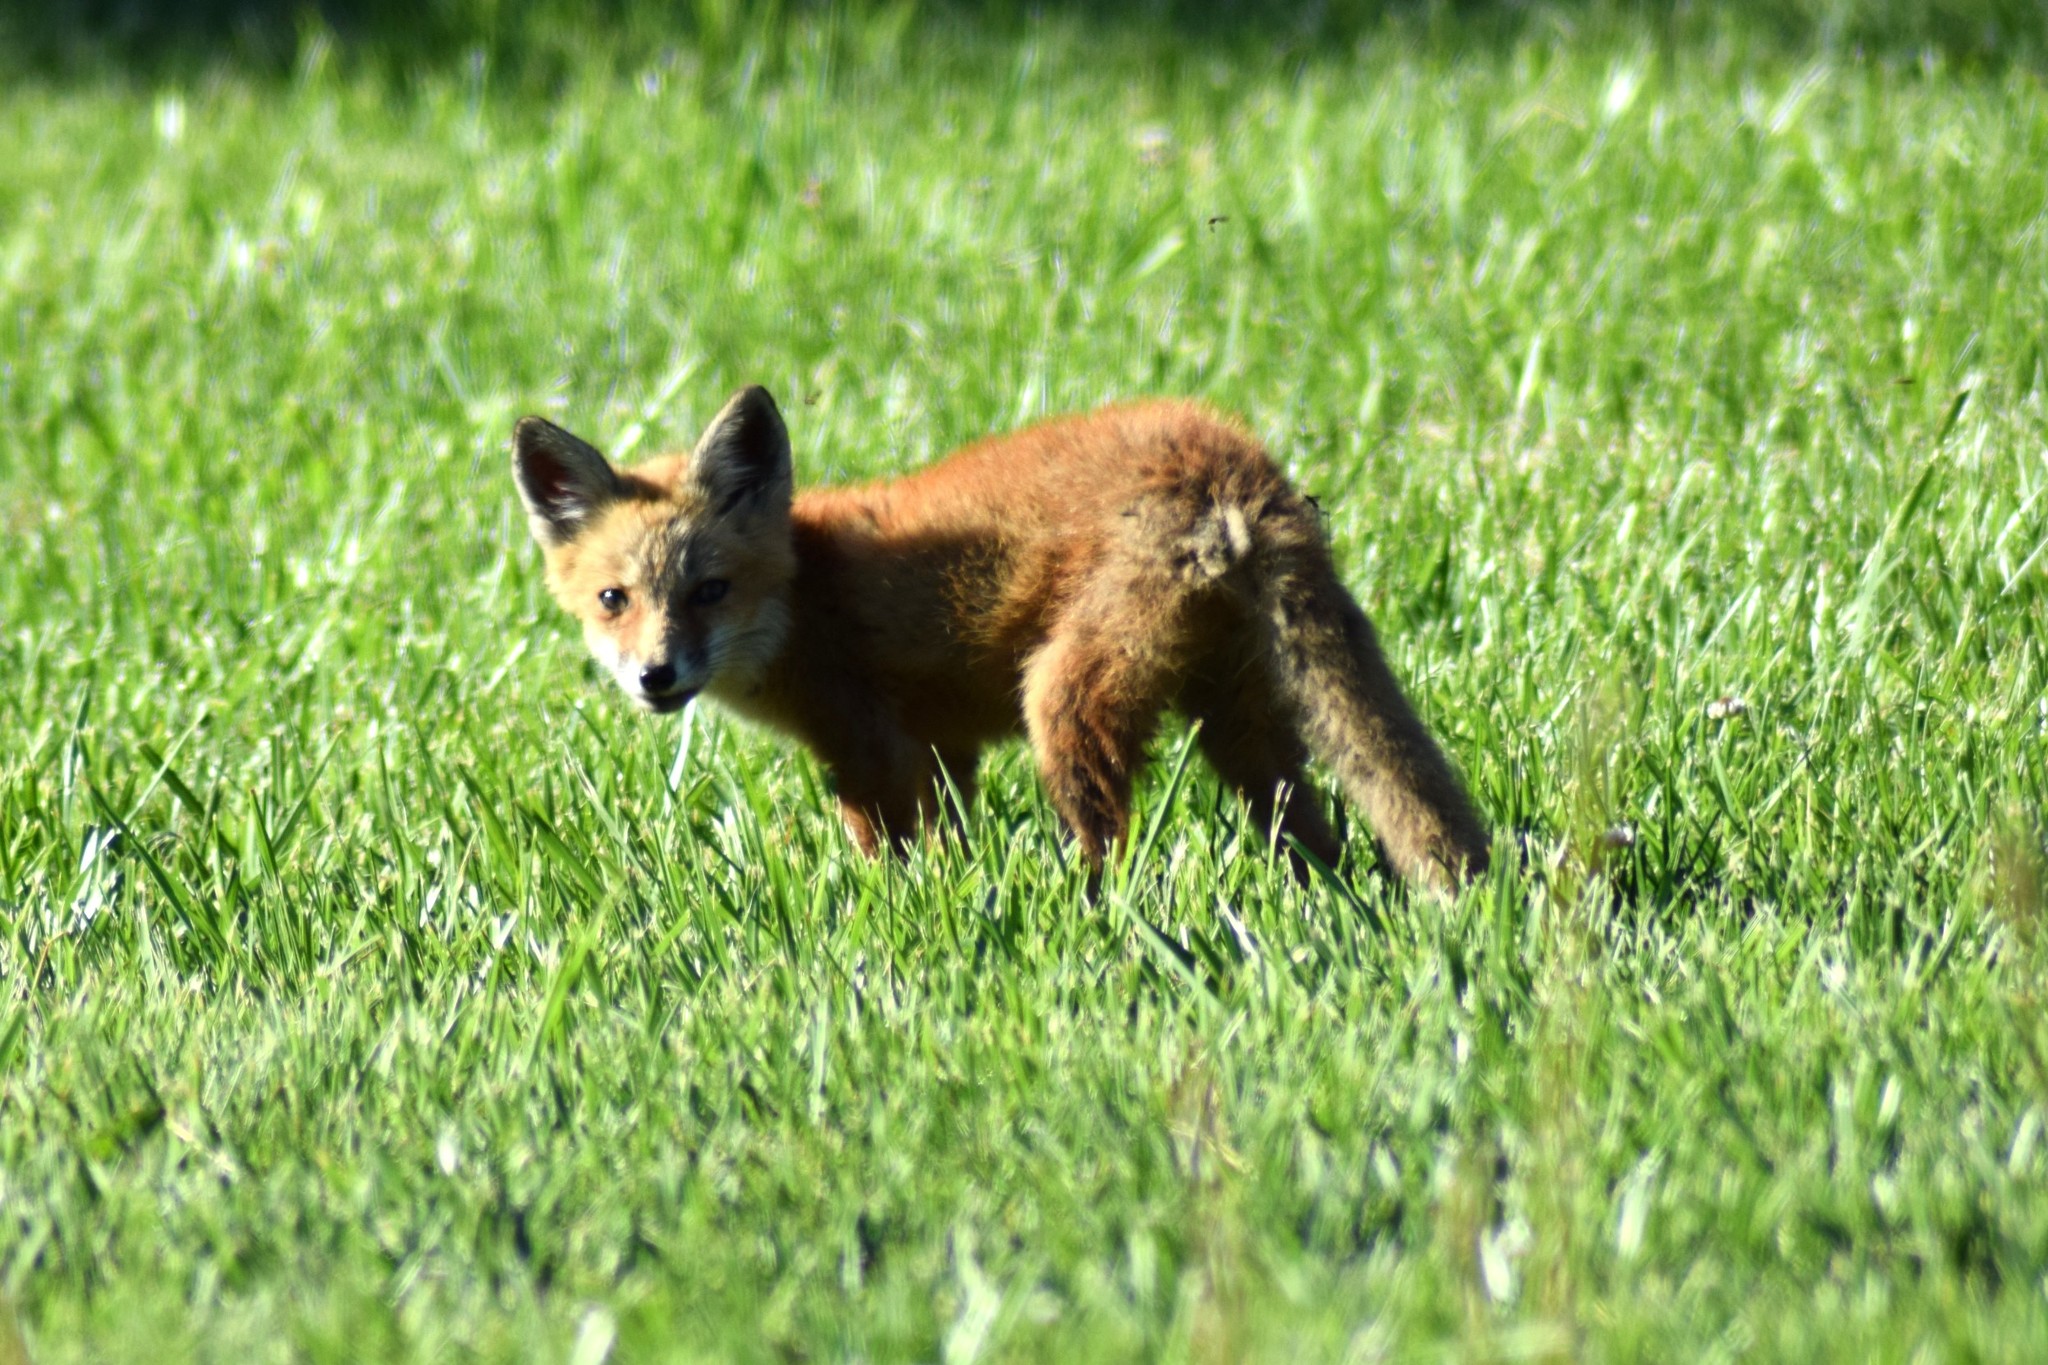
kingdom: Animalia
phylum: Chordata
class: Mammalia
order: Carnivora
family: Canidae
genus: Vulpes
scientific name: Vulpes vulpes
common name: Red fox
